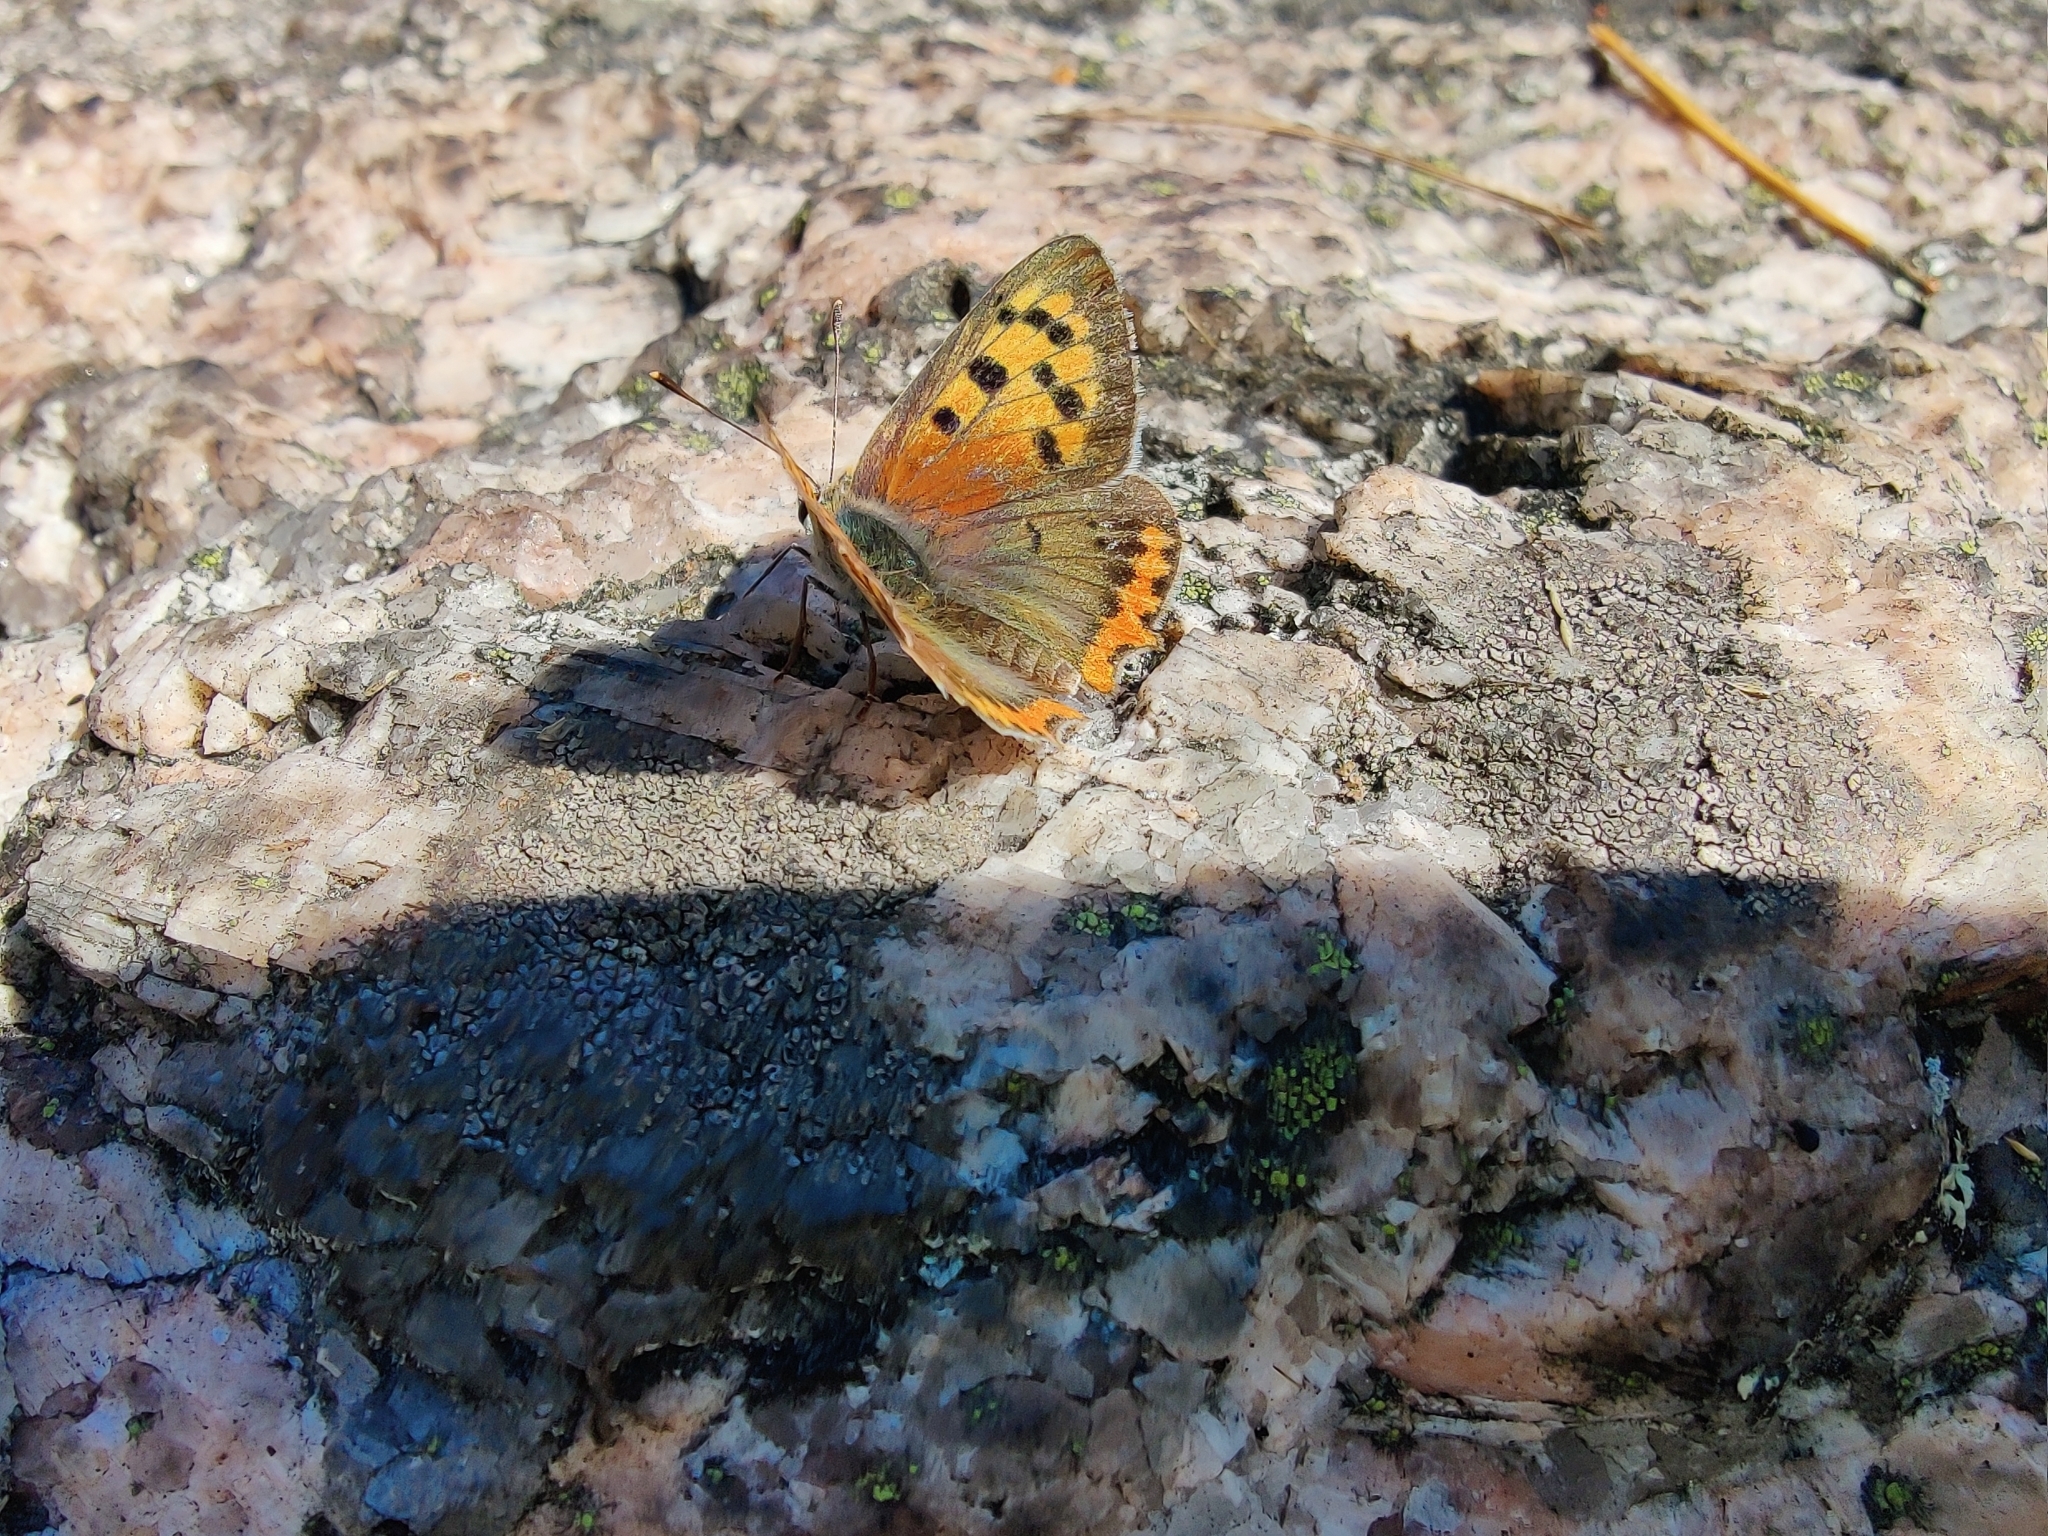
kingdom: Animalia
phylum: Arthropoda
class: Insecta
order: Lepidoptera
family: Lycaenidae
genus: Lycaena
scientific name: Lycaena phlaeas
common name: Small copper
